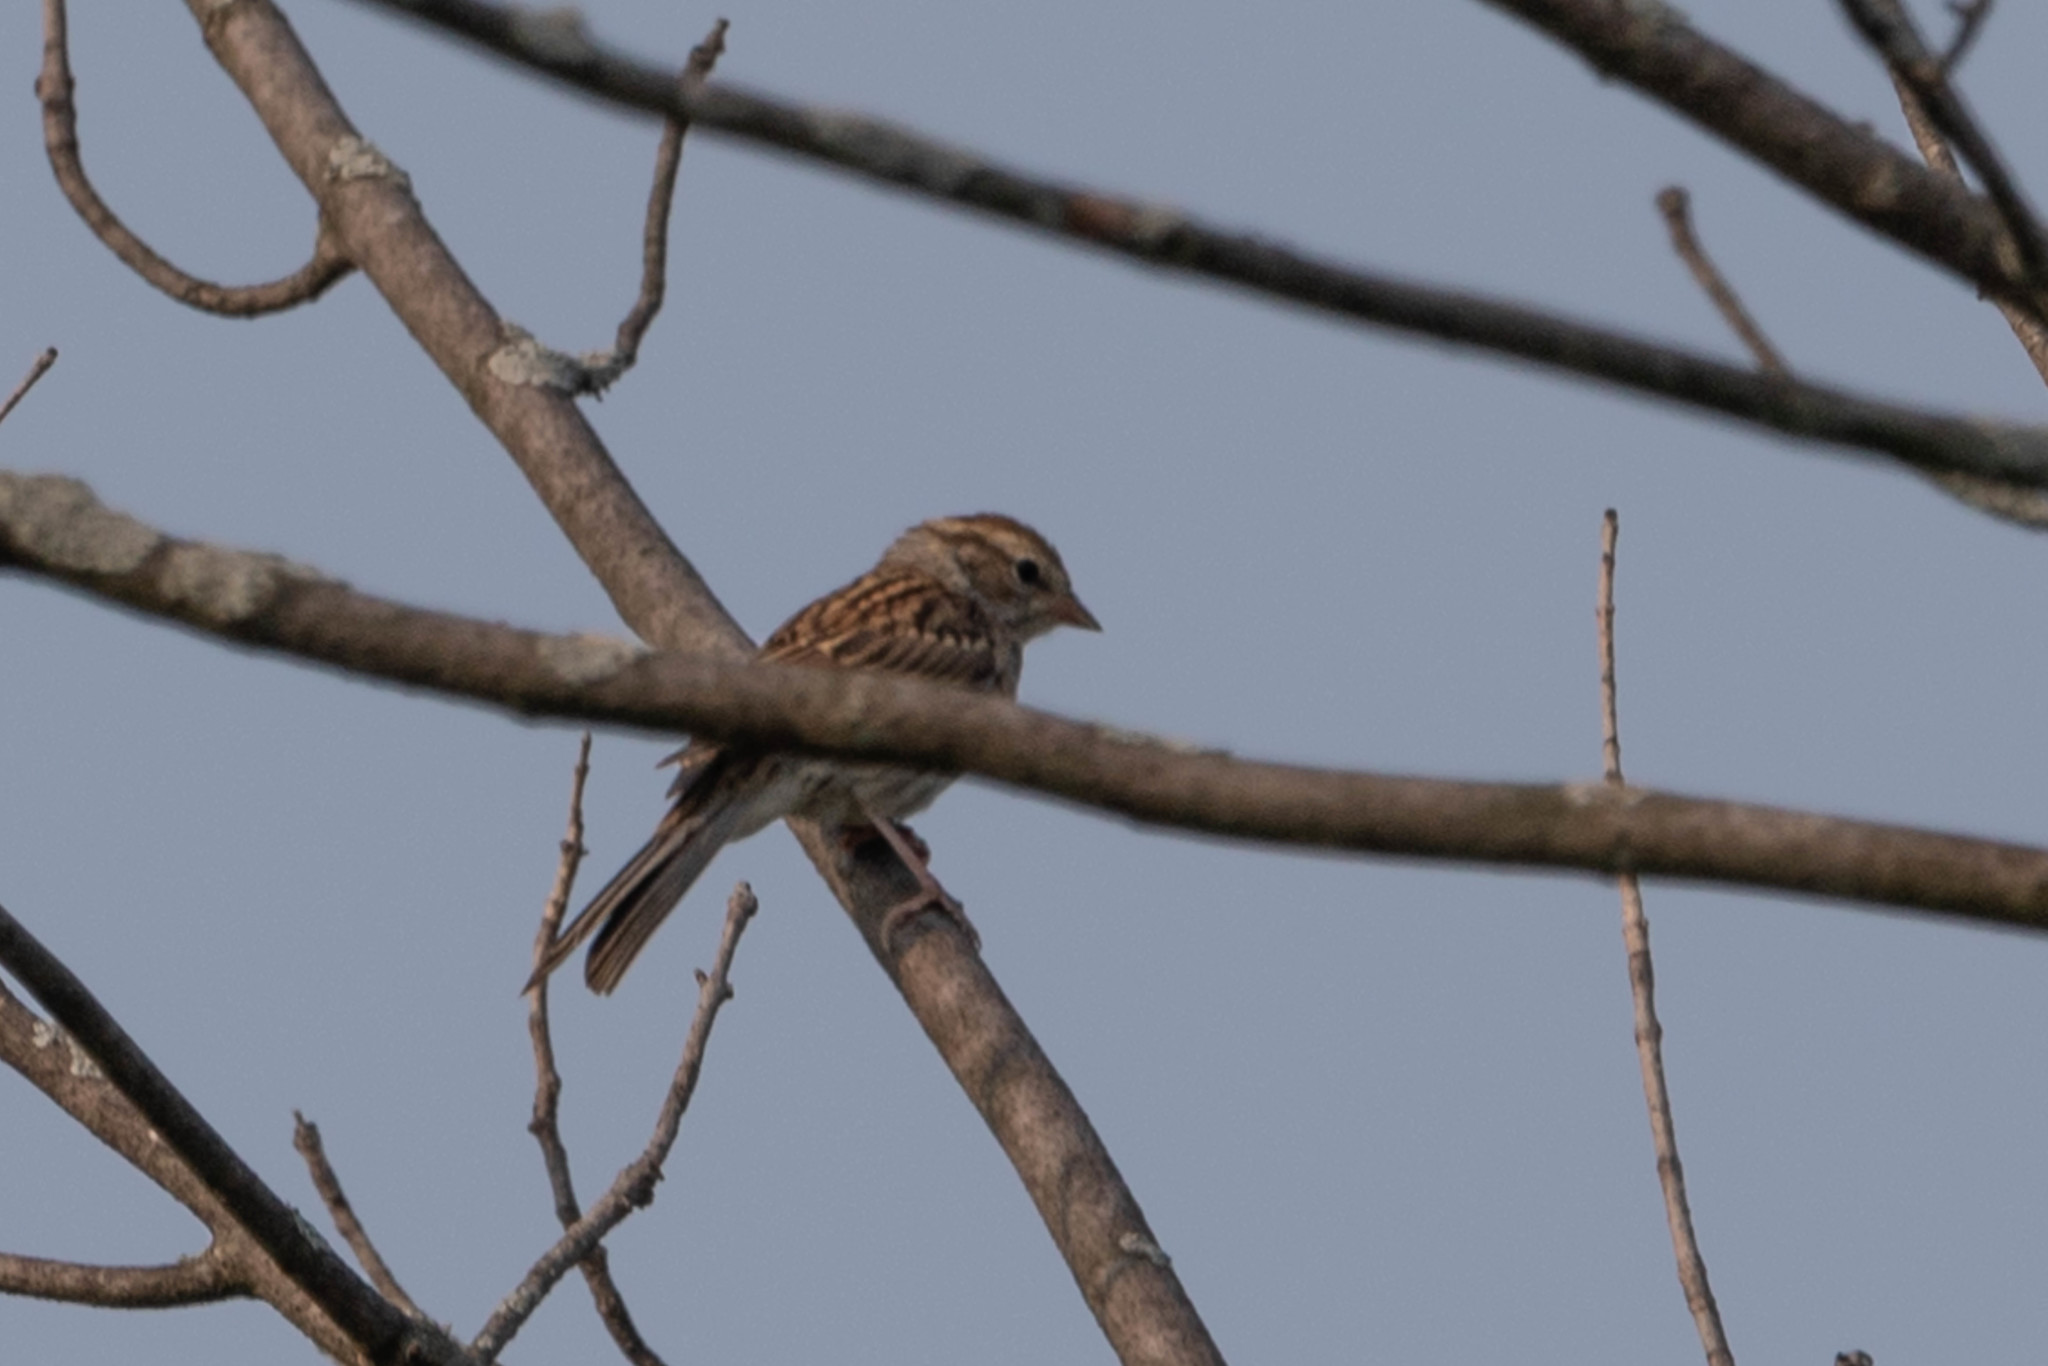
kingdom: Animalia
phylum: Chordata
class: Aves
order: Passeriformes
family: Passerellidae
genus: Spizella
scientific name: Spizella passerina
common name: Chipping sparrow
